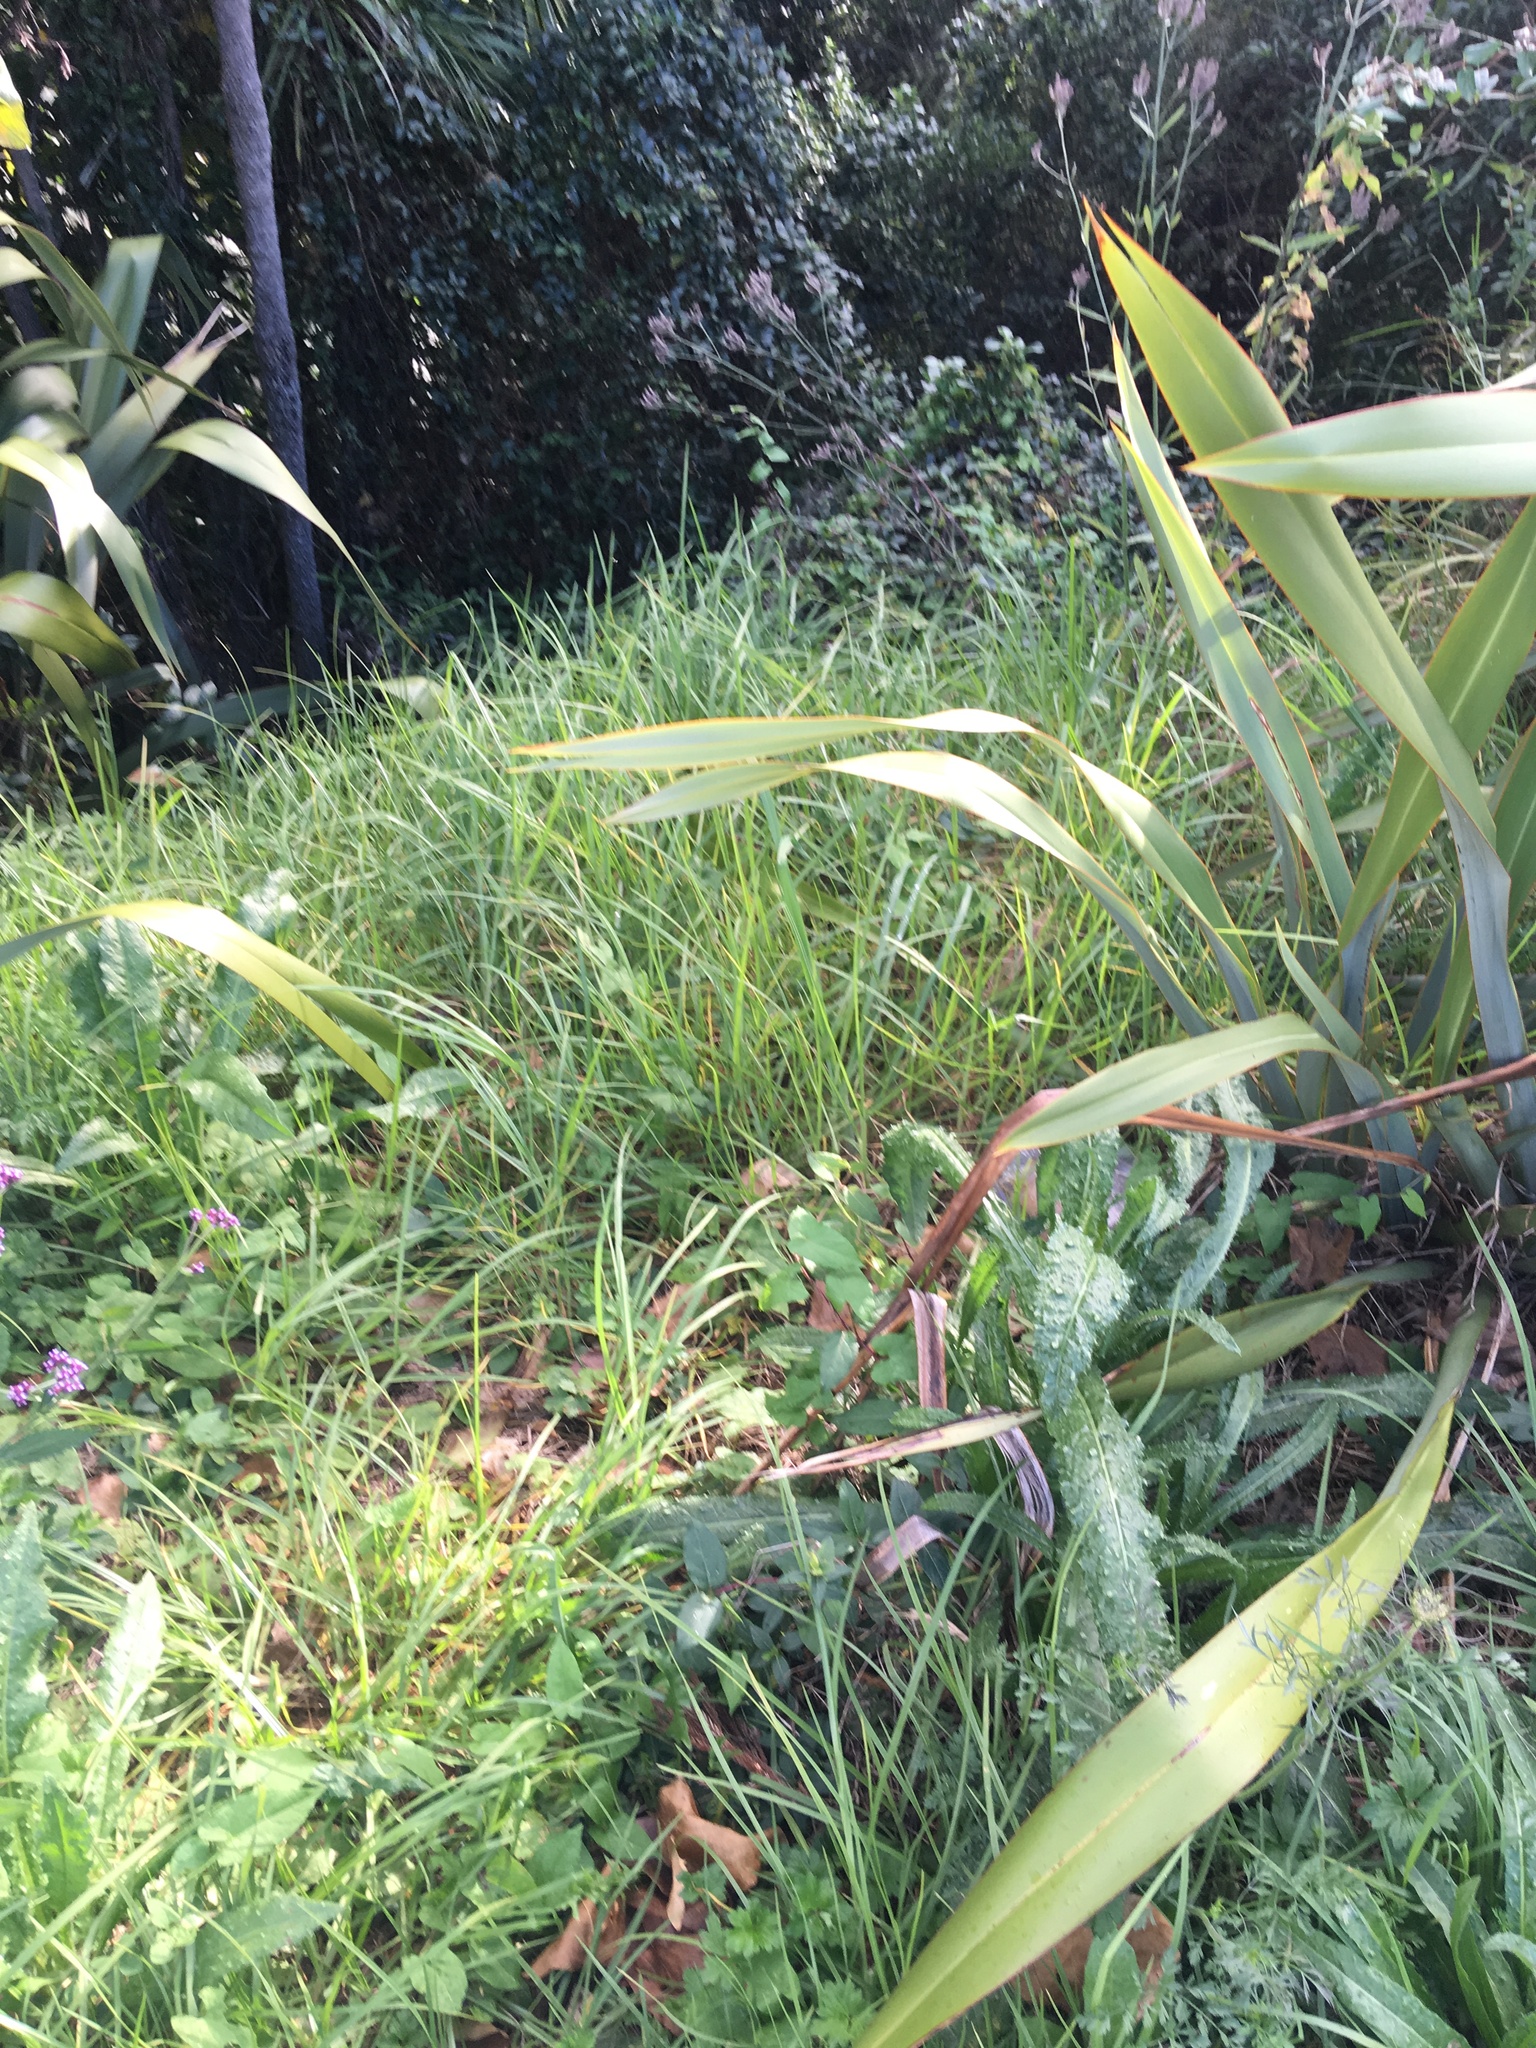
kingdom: Plantae
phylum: Tracheophyta
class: Liliopsida
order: Poales
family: Poaceae
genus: Cenchrus
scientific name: Cenchrus clandestinus
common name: Kikuyugrass
